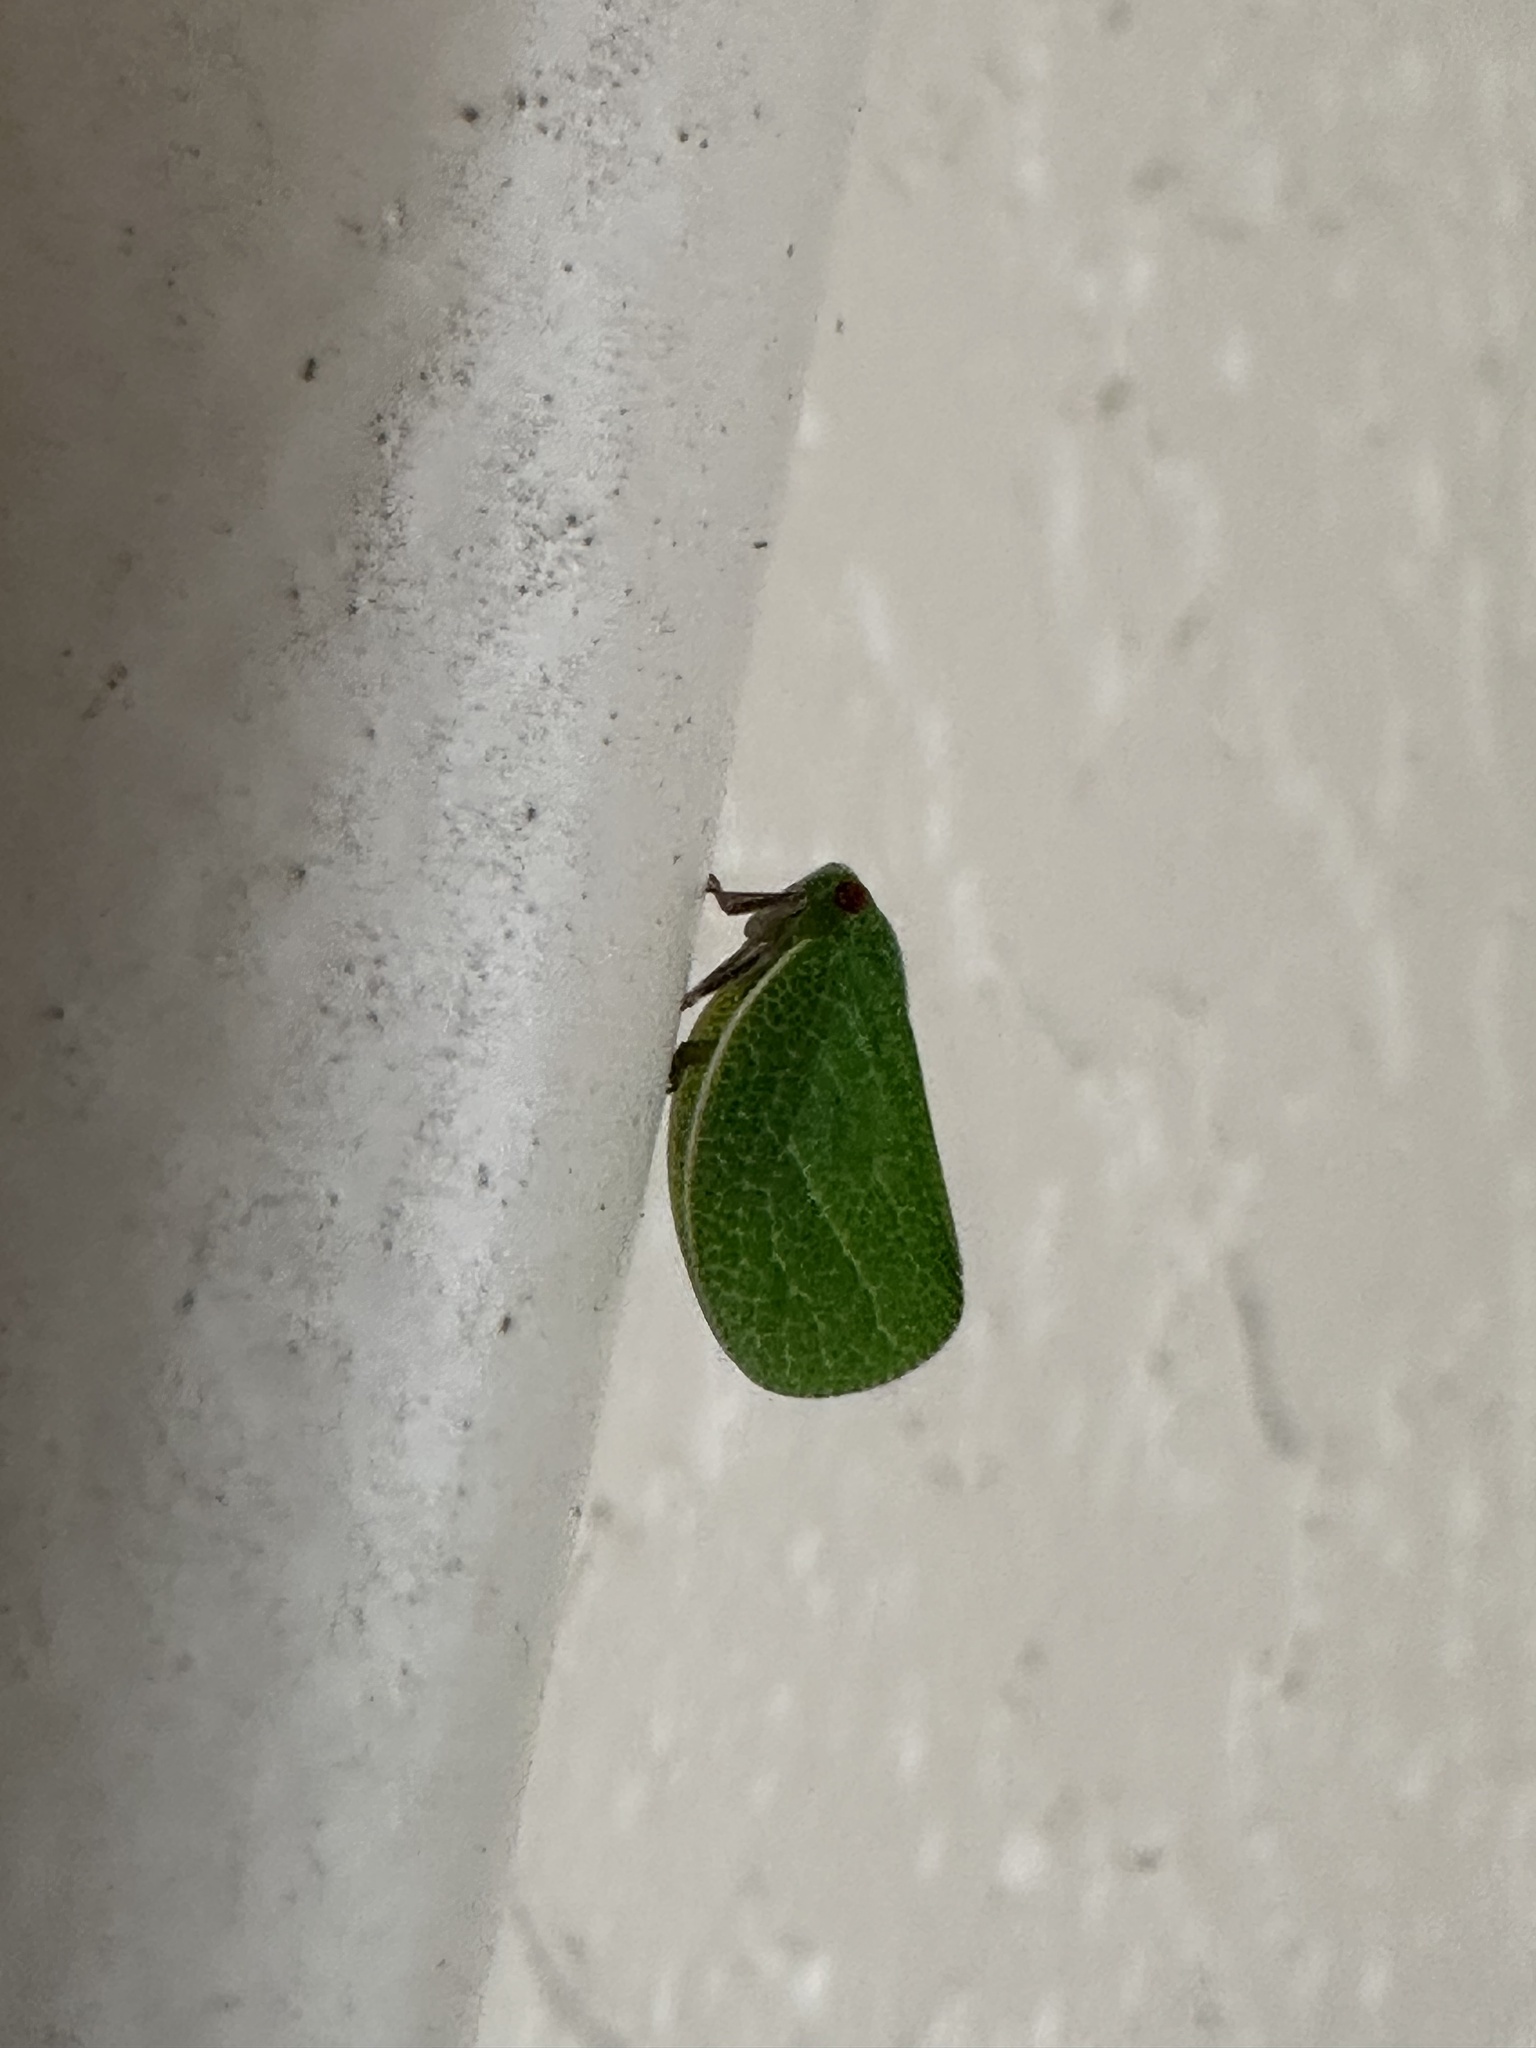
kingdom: Animalia
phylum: Arthropoda
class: Insecta
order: Hemiptera
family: Acanaloniidae
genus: Acanalonia
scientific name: Acanalonia servillei
